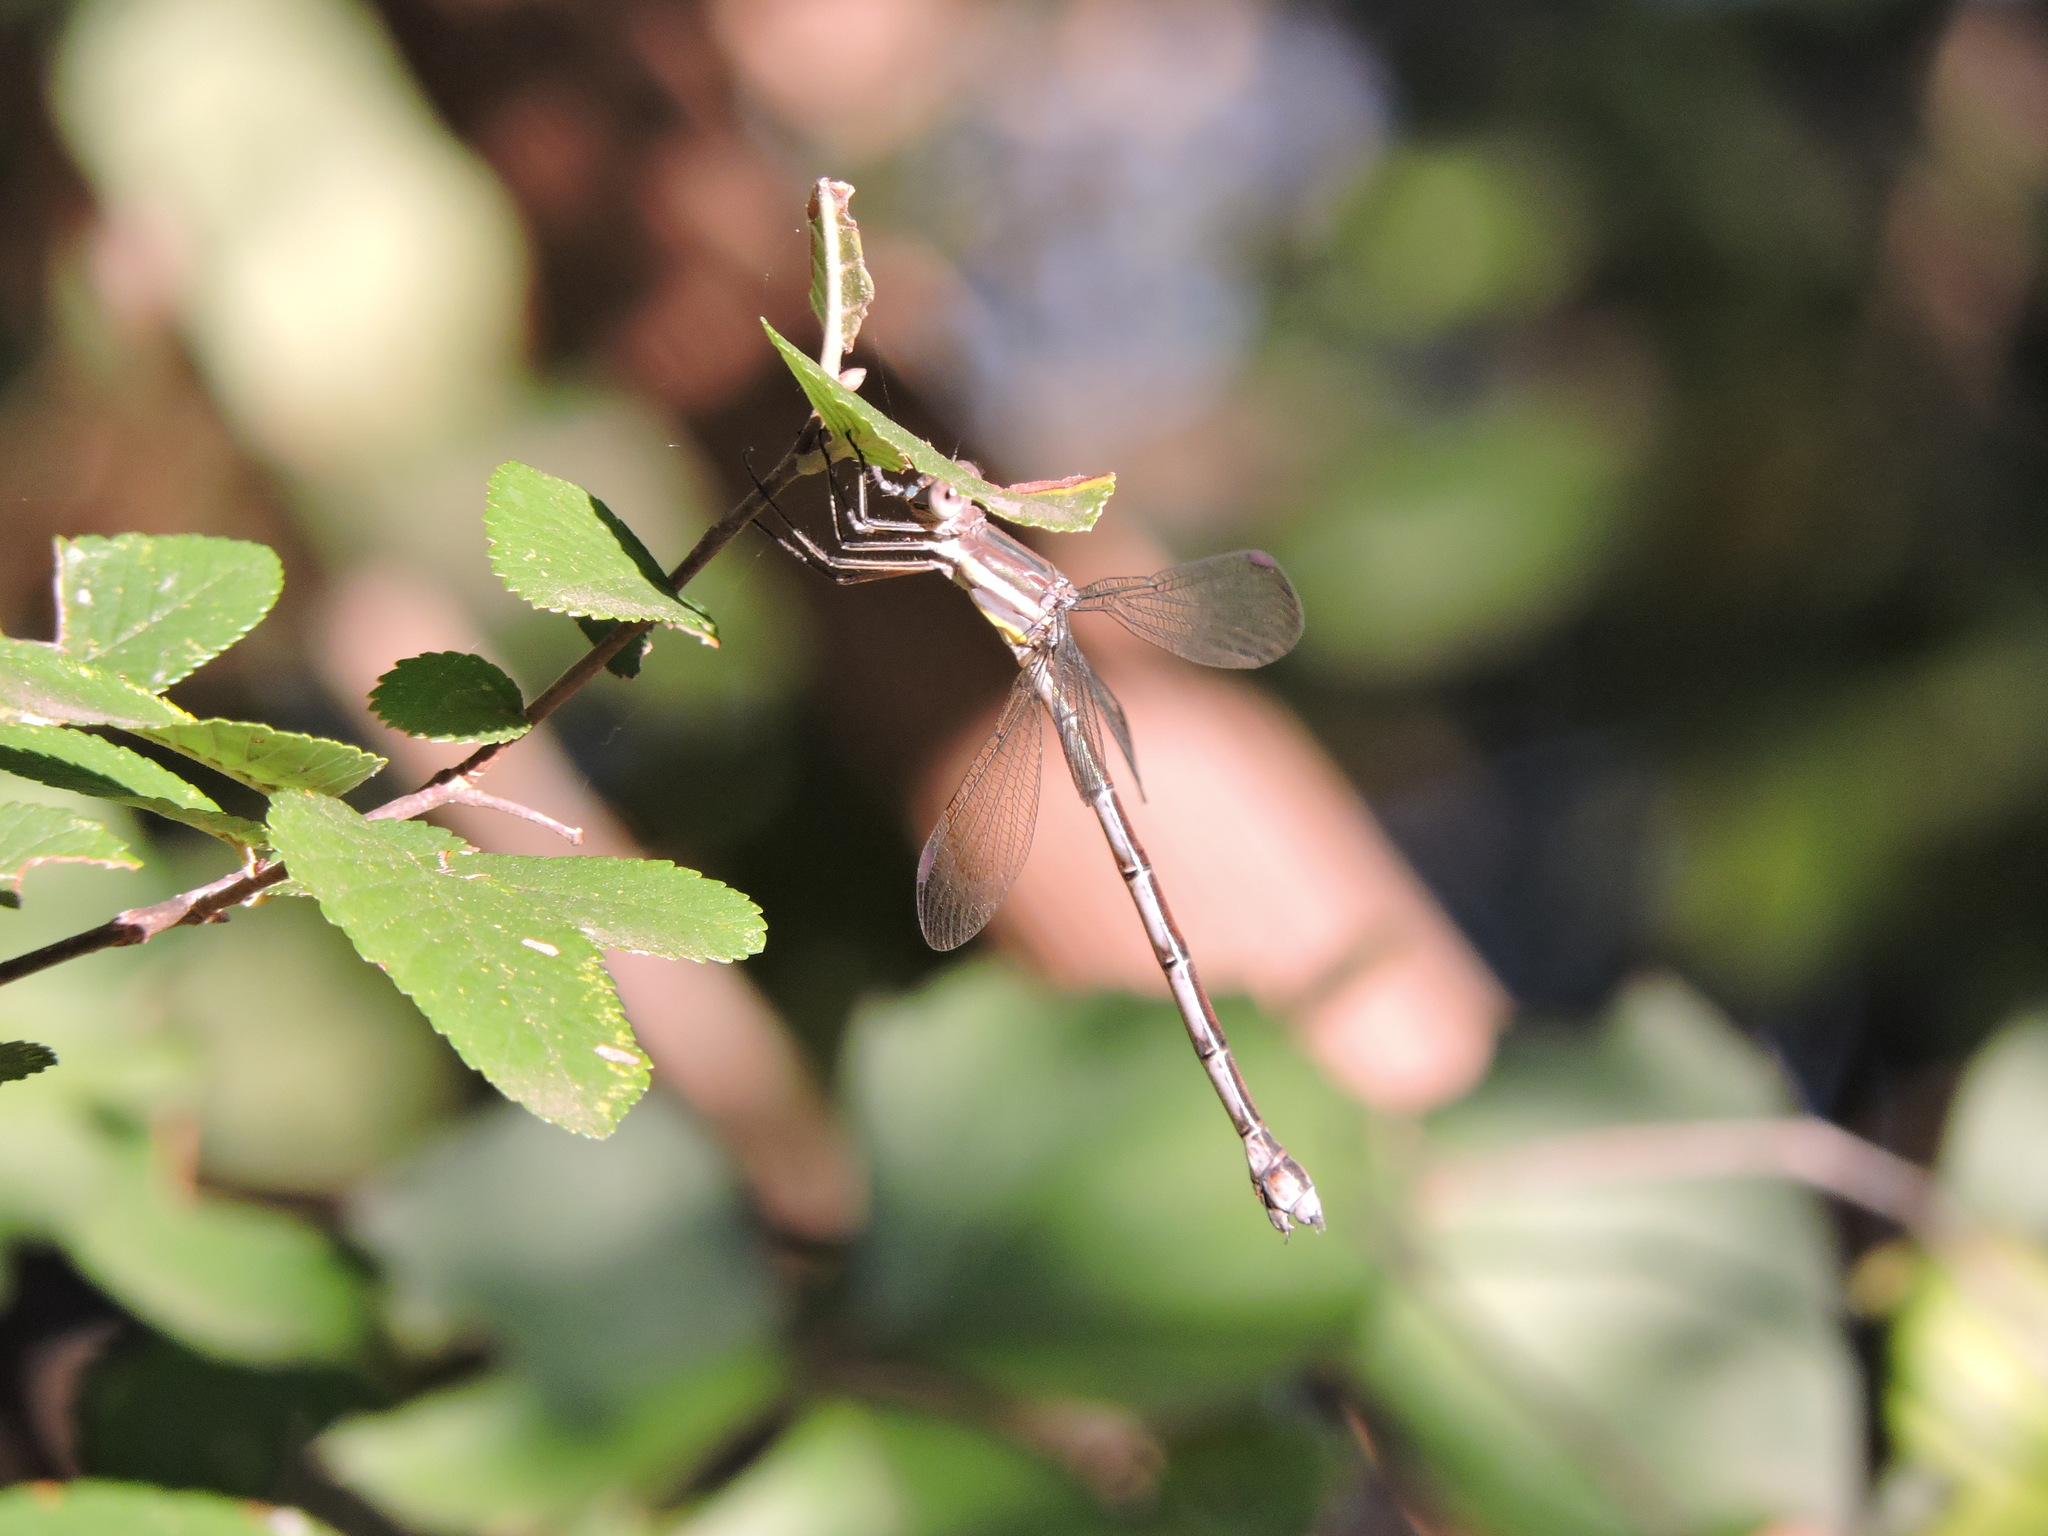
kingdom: Animalia
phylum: Arthropoda
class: Insecta
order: Odonata
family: Lestidae
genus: Archilestes
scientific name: Archilestes grandis
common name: Great spreadwing
